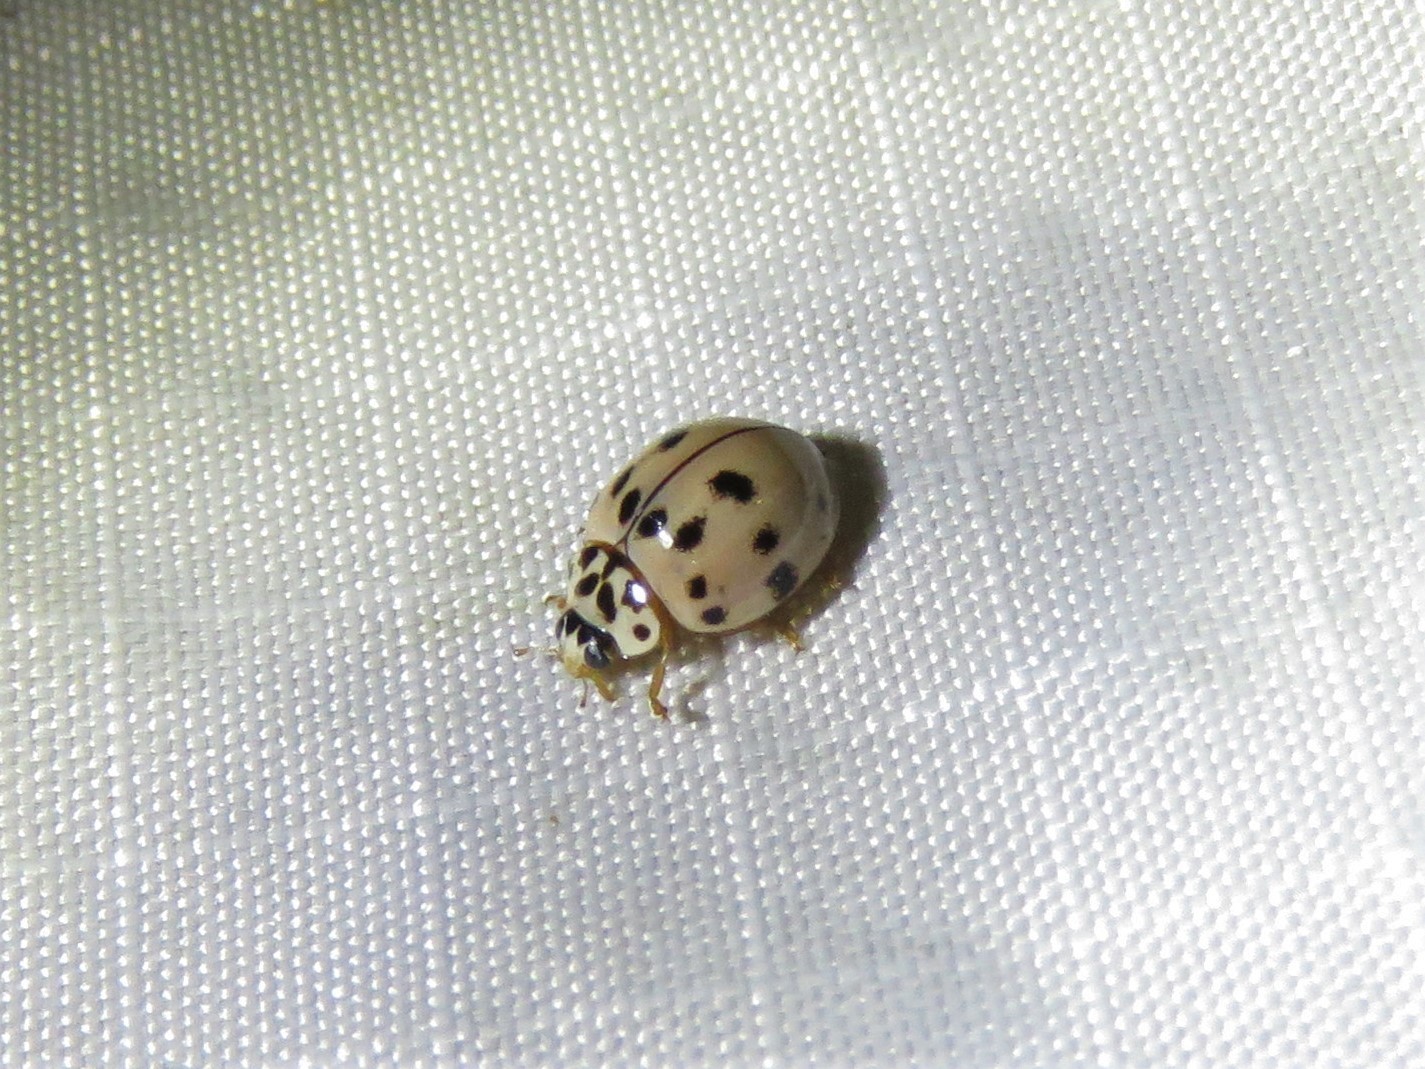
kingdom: Animalia
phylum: Arthropoda
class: Insecta
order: Coleoptera
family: Coccinellidae
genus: Olla
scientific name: Olla v-nigrum
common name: Ashy gray lady beetle
